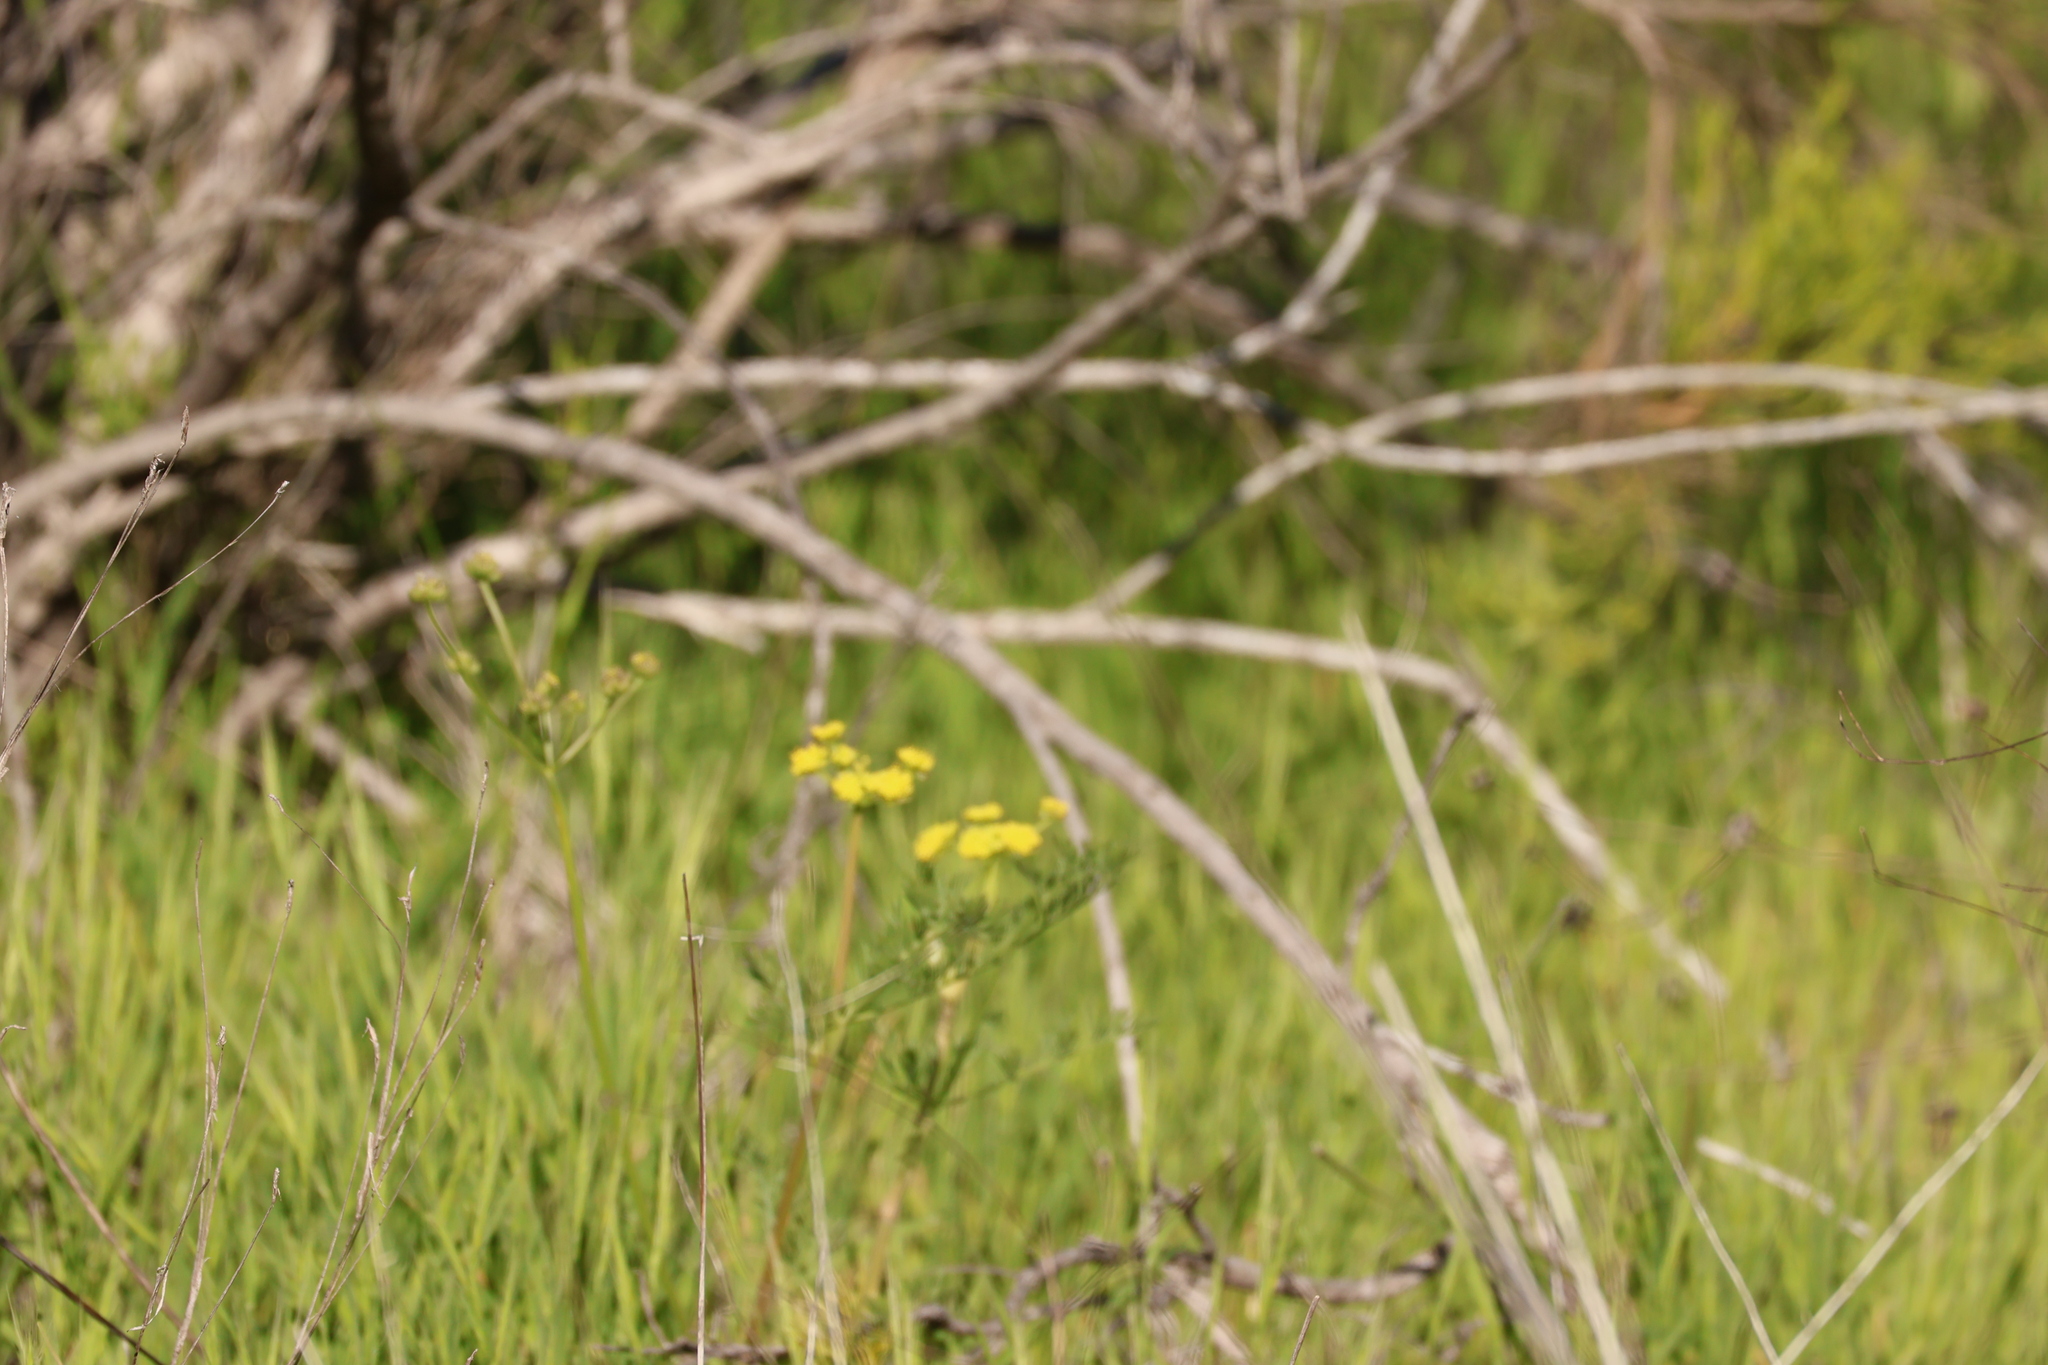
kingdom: Plantae
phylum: Tracheophyta
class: Magnoliopsida
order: Apiales
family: Apiaceae
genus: Lomatium
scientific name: Lomatium utriculatum
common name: Fine-leaf desert-parsley
